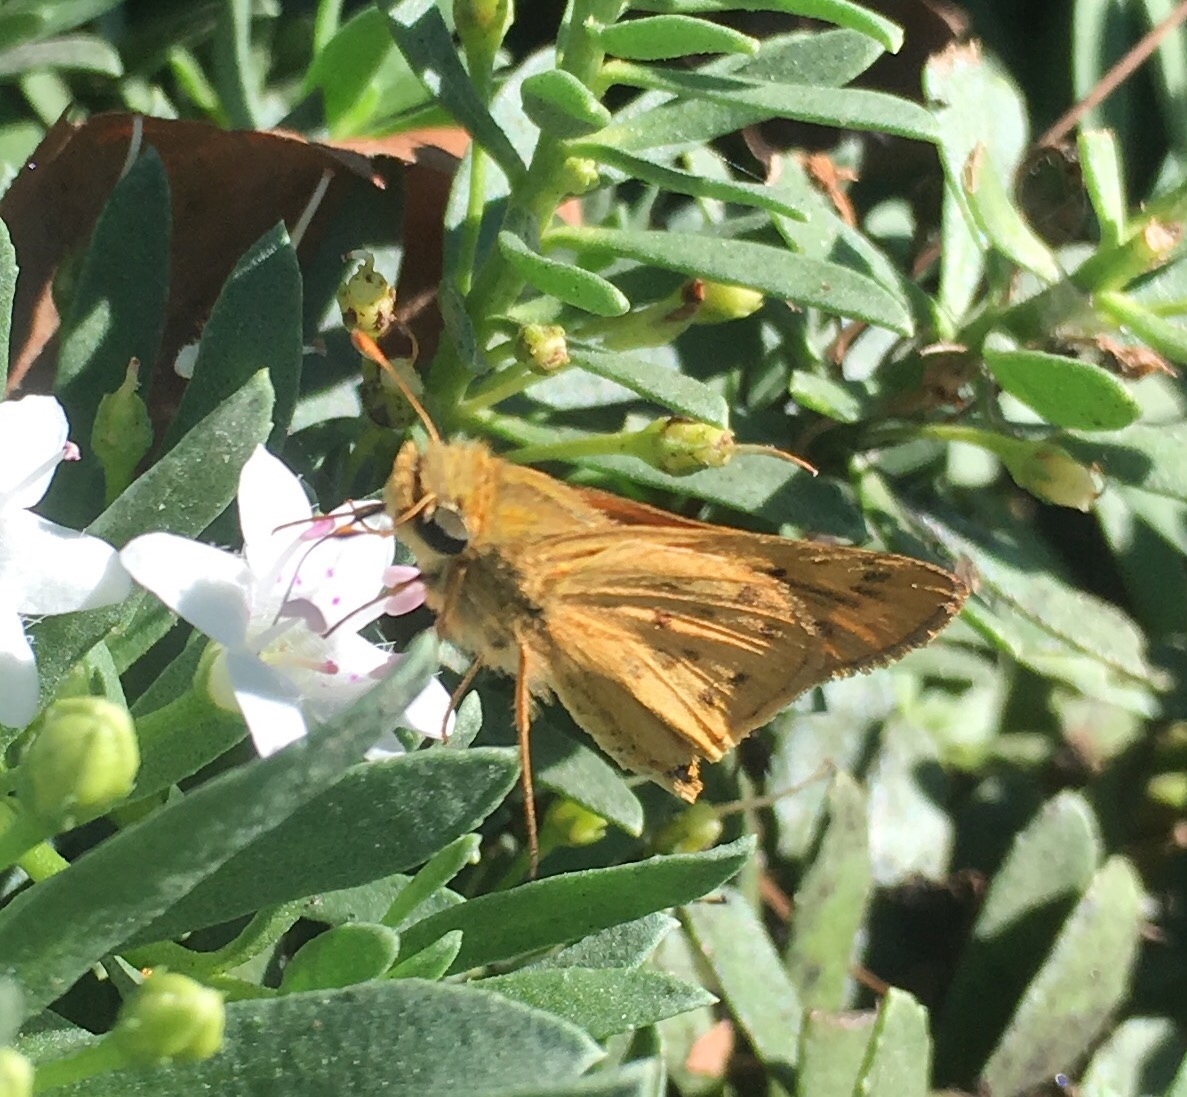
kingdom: Animalia
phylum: Arthropoda
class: Insecta
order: Lepidoptera
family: Hesperiidae
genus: Hylephila
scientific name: Hylephila phyleus
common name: Fiery skipper
